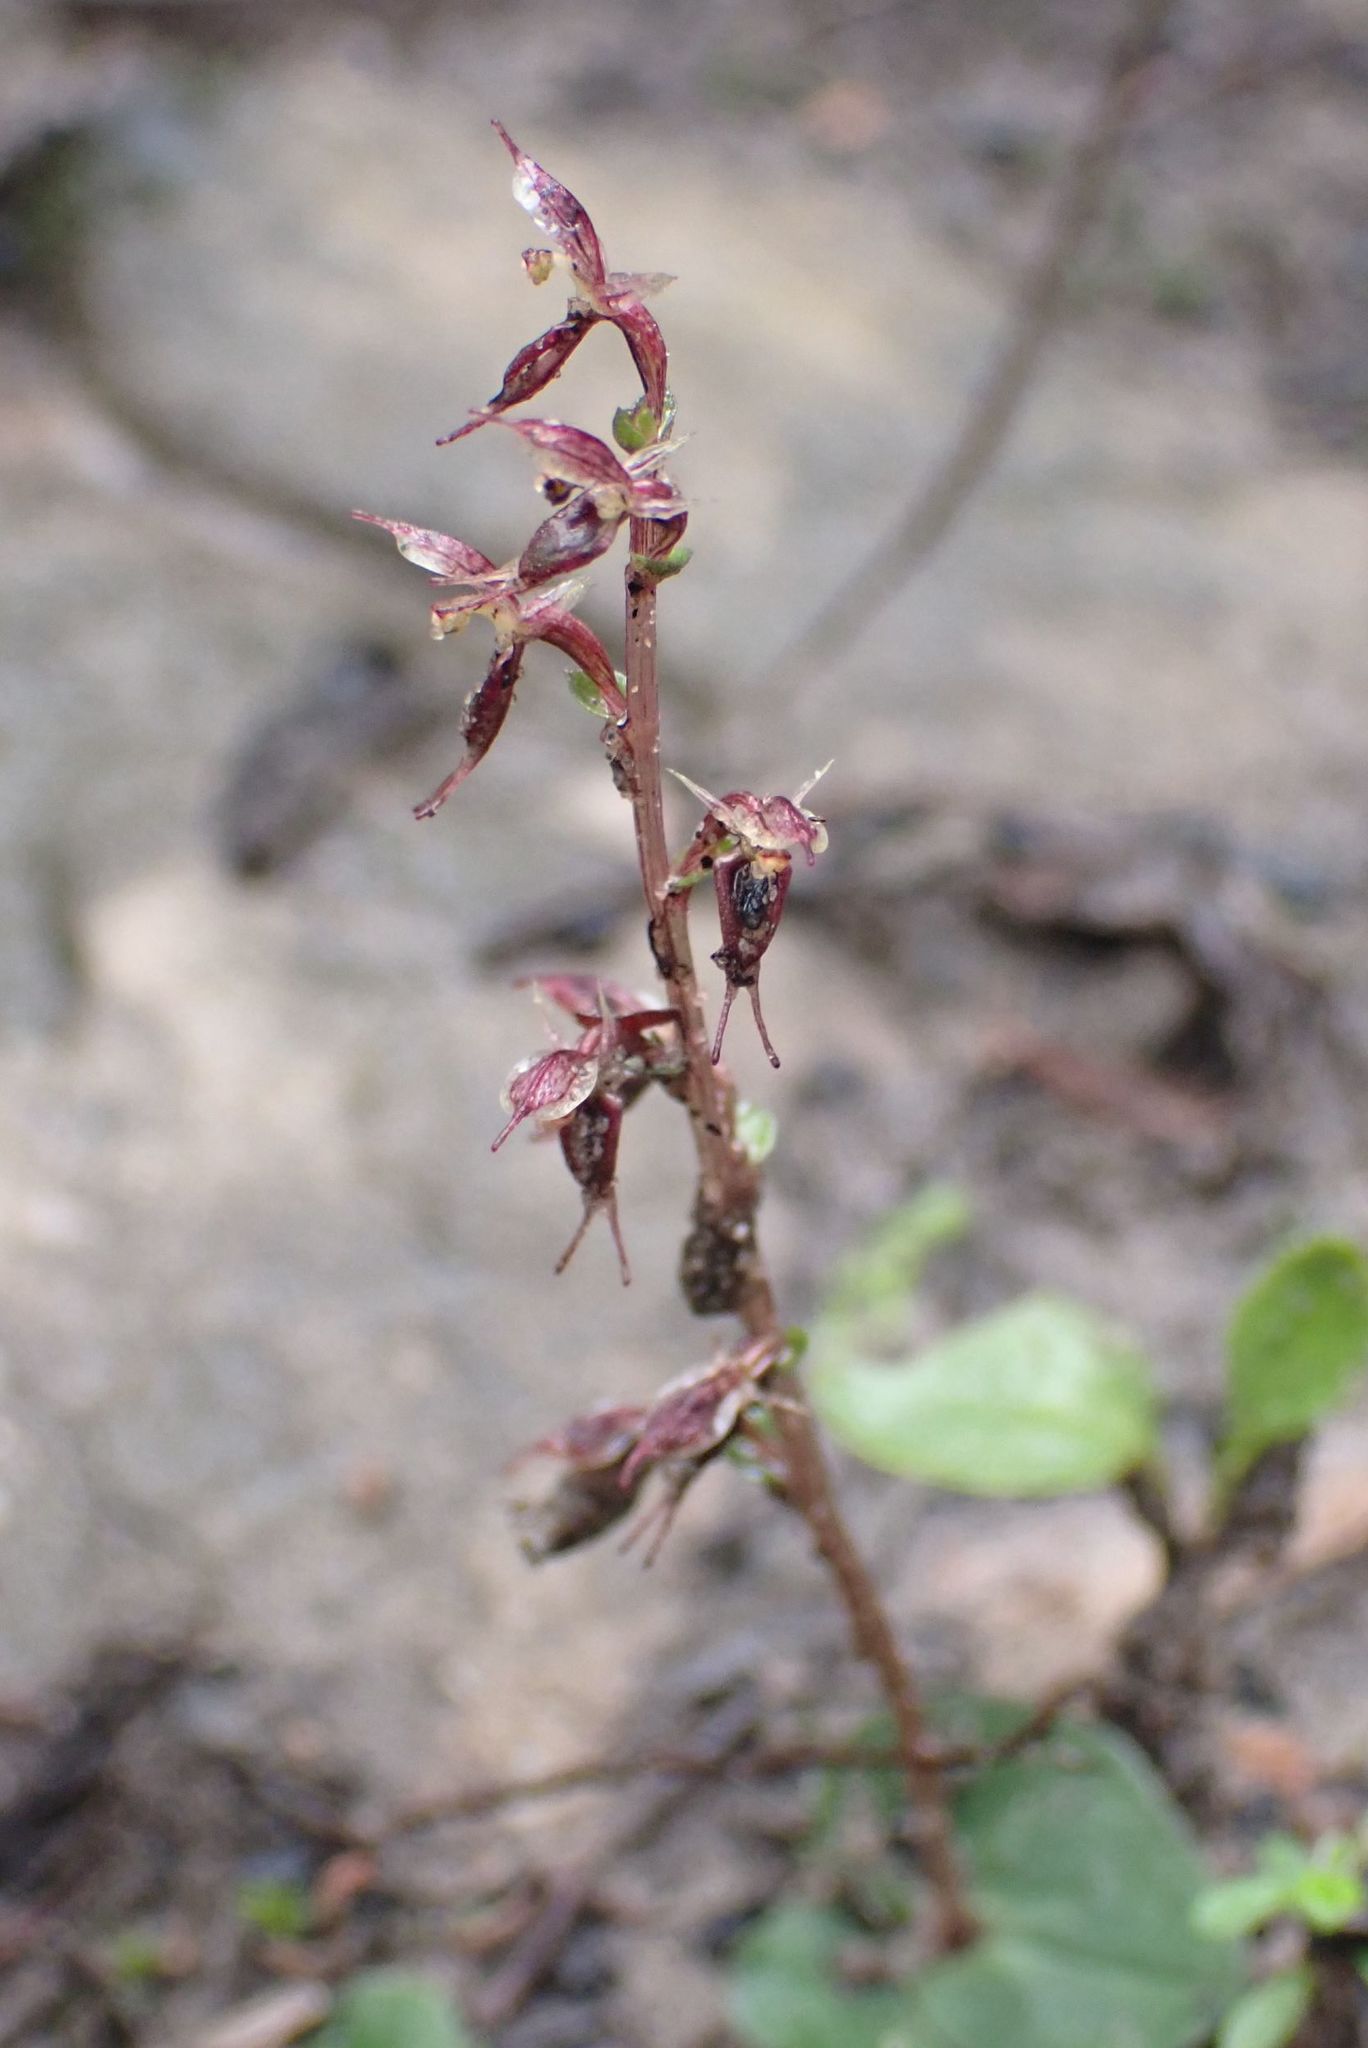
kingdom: Plantae
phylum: Tracheophyta
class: Liliopsida
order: Asparagales
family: Orchidaceae
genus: Acianthus
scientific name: Acianthus pusillus
